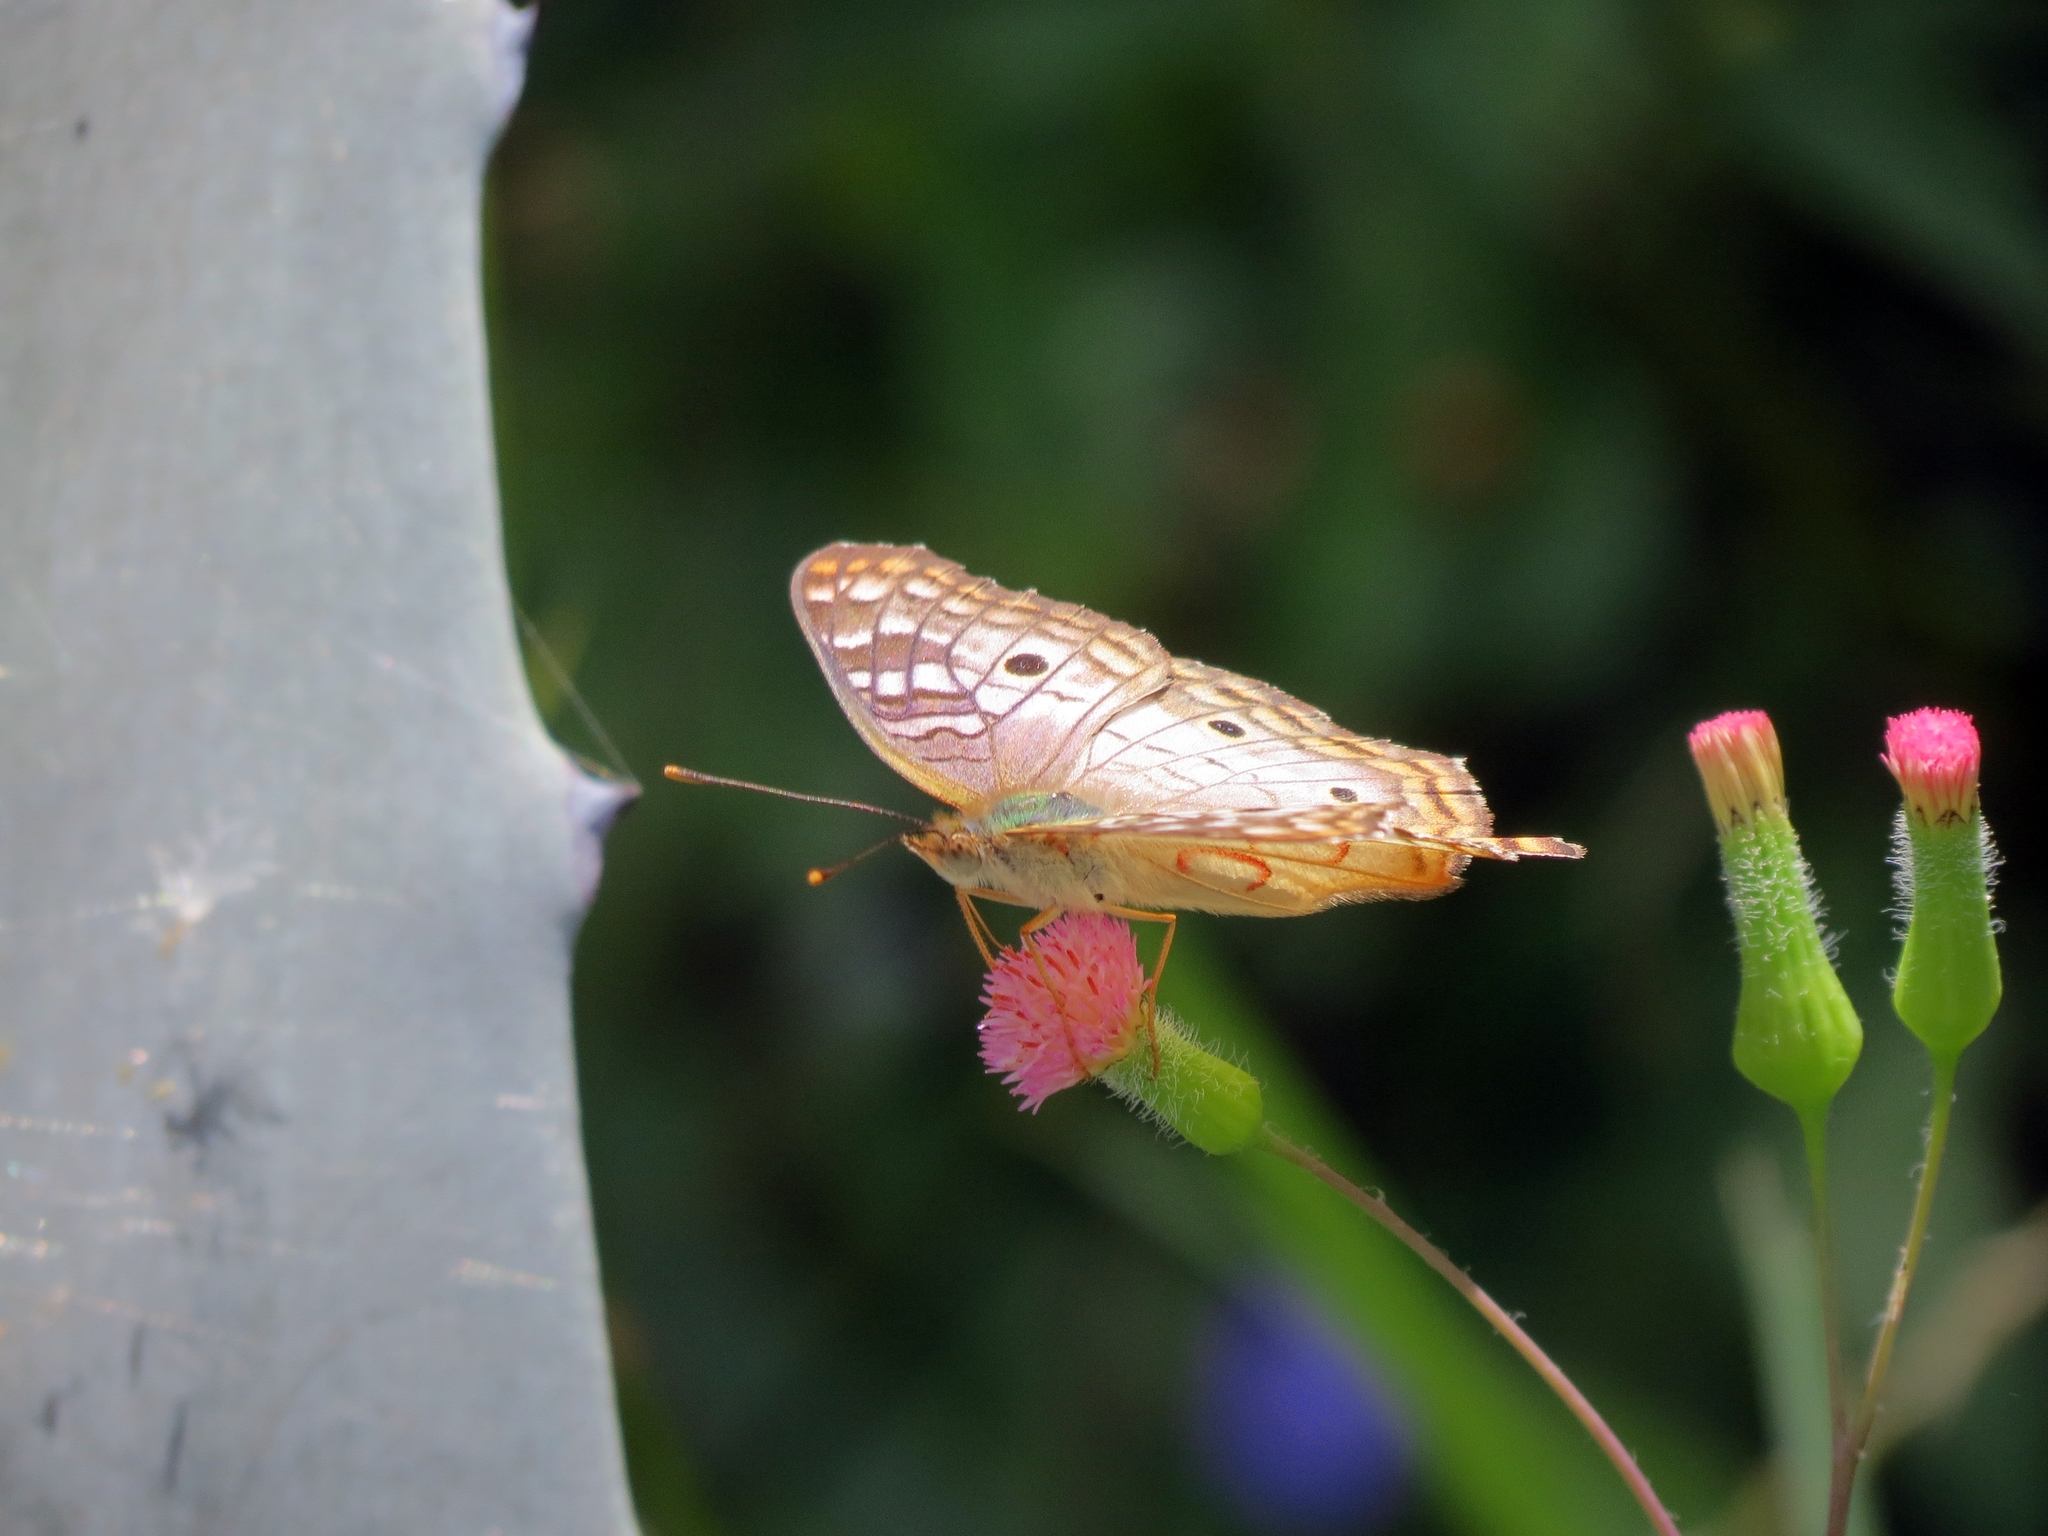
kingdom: Animalia
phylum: Arthropoda
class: Insecta
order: Lepidoptera
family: Nymphalidae
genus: Anartia
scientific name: Anartia jatrophae
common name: White peacock
